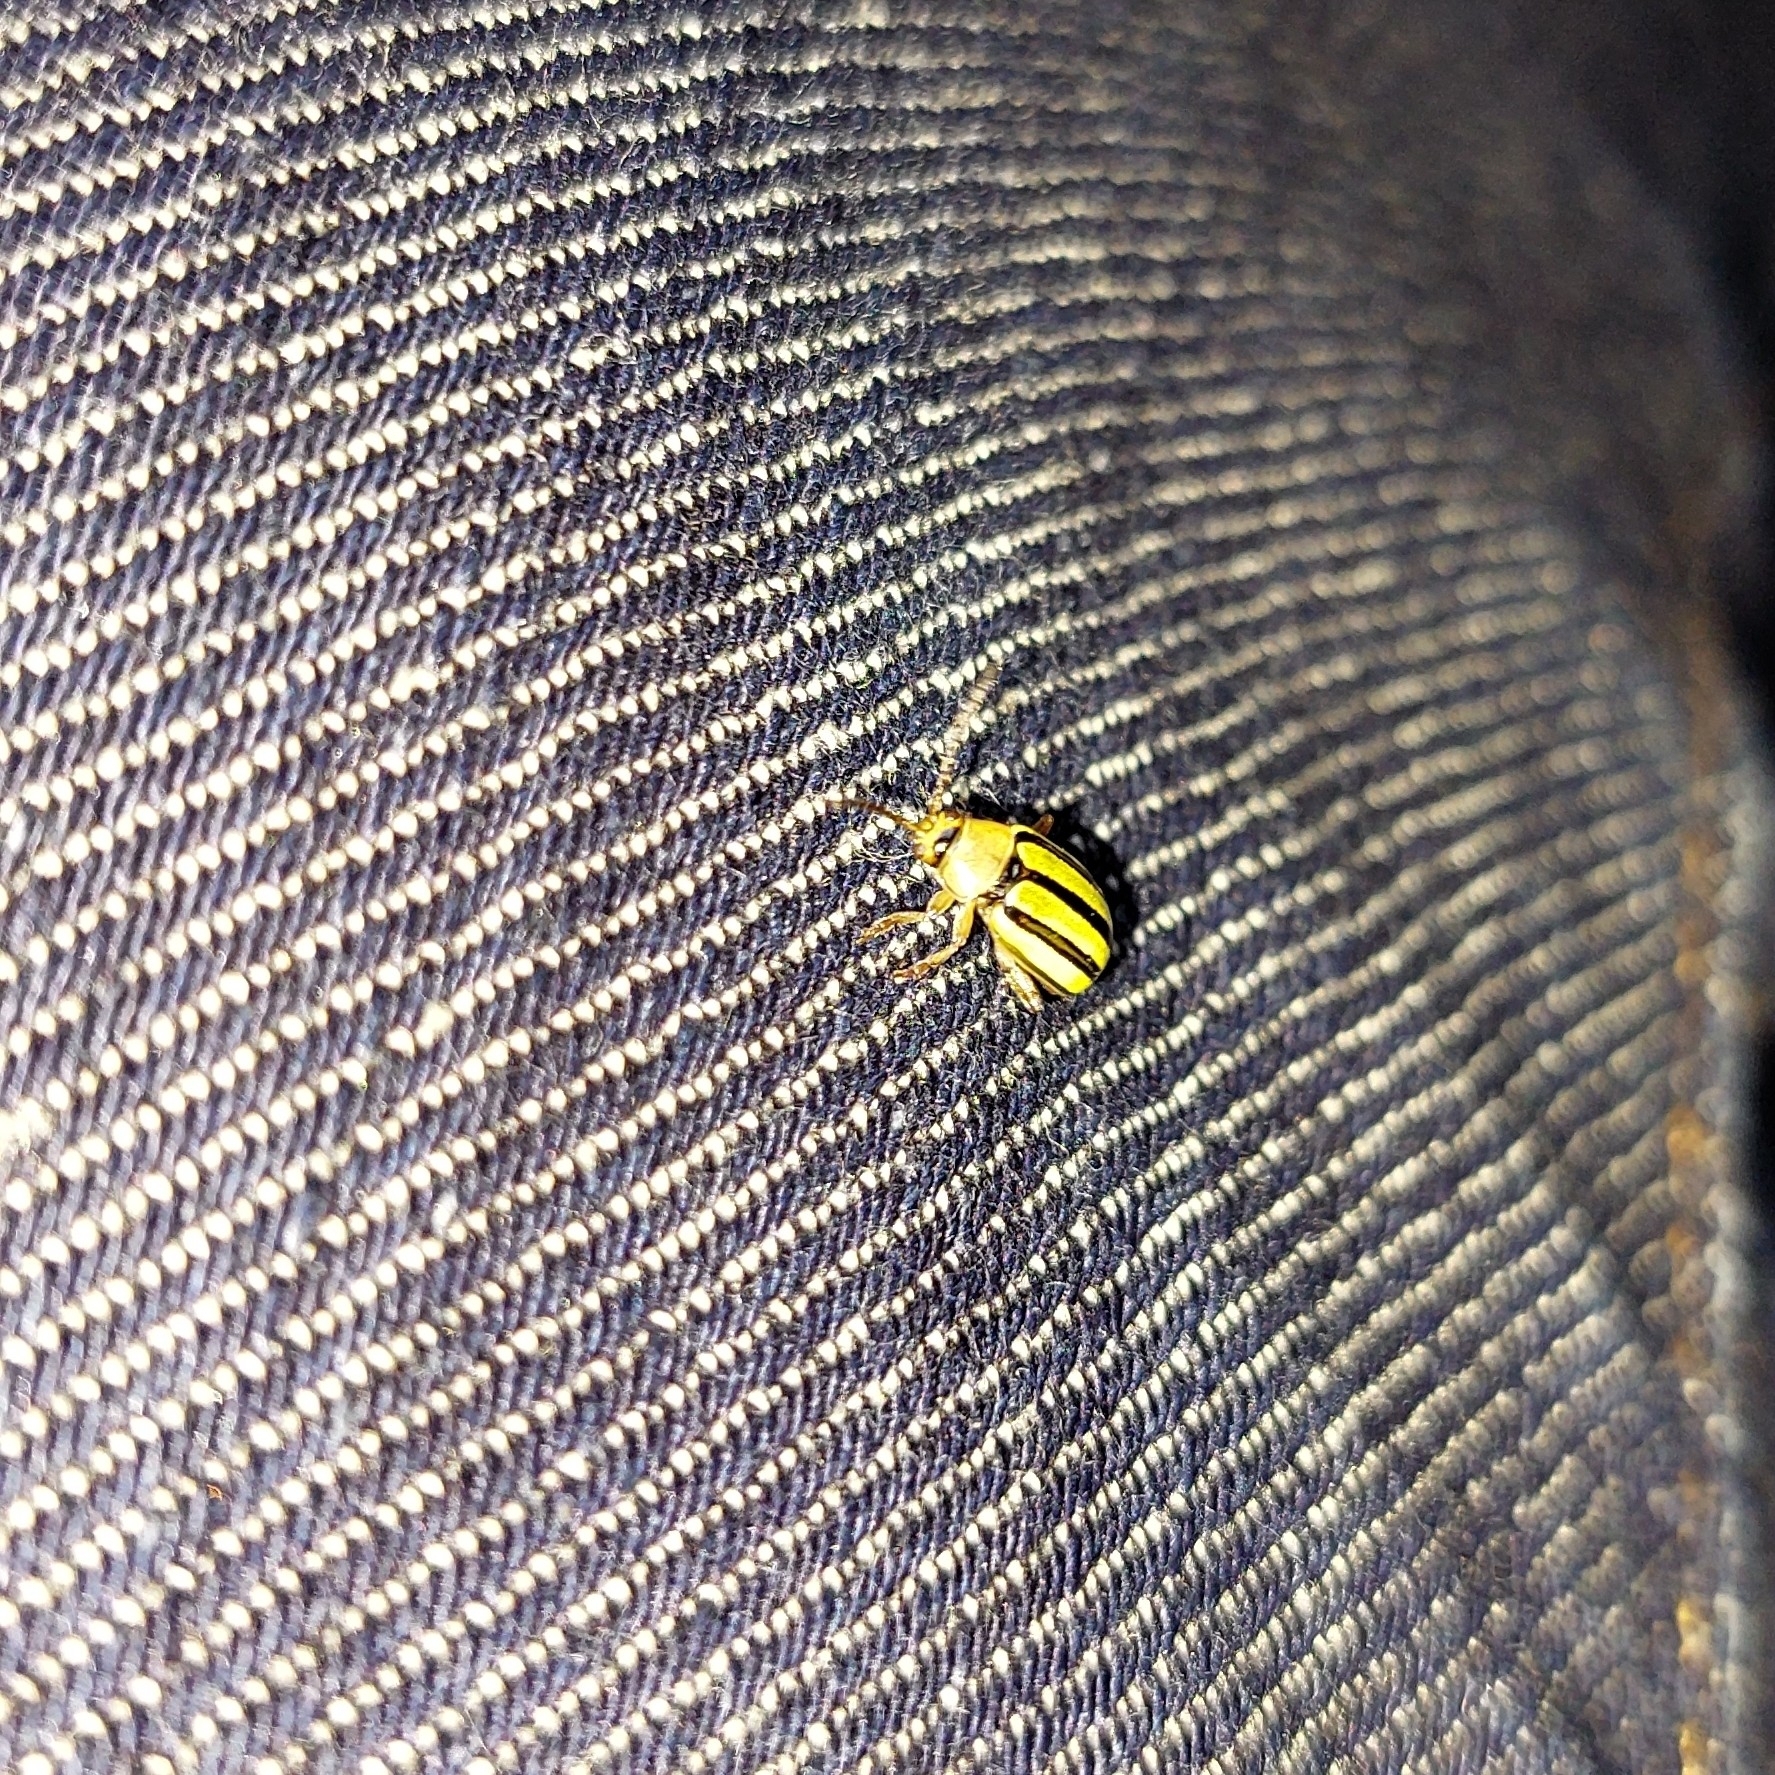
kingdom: Animalia
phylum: Arthropoda
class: Insecta
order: Coleoptera
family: Chrysomelidae
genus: Disonycha
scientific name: Disonycha
